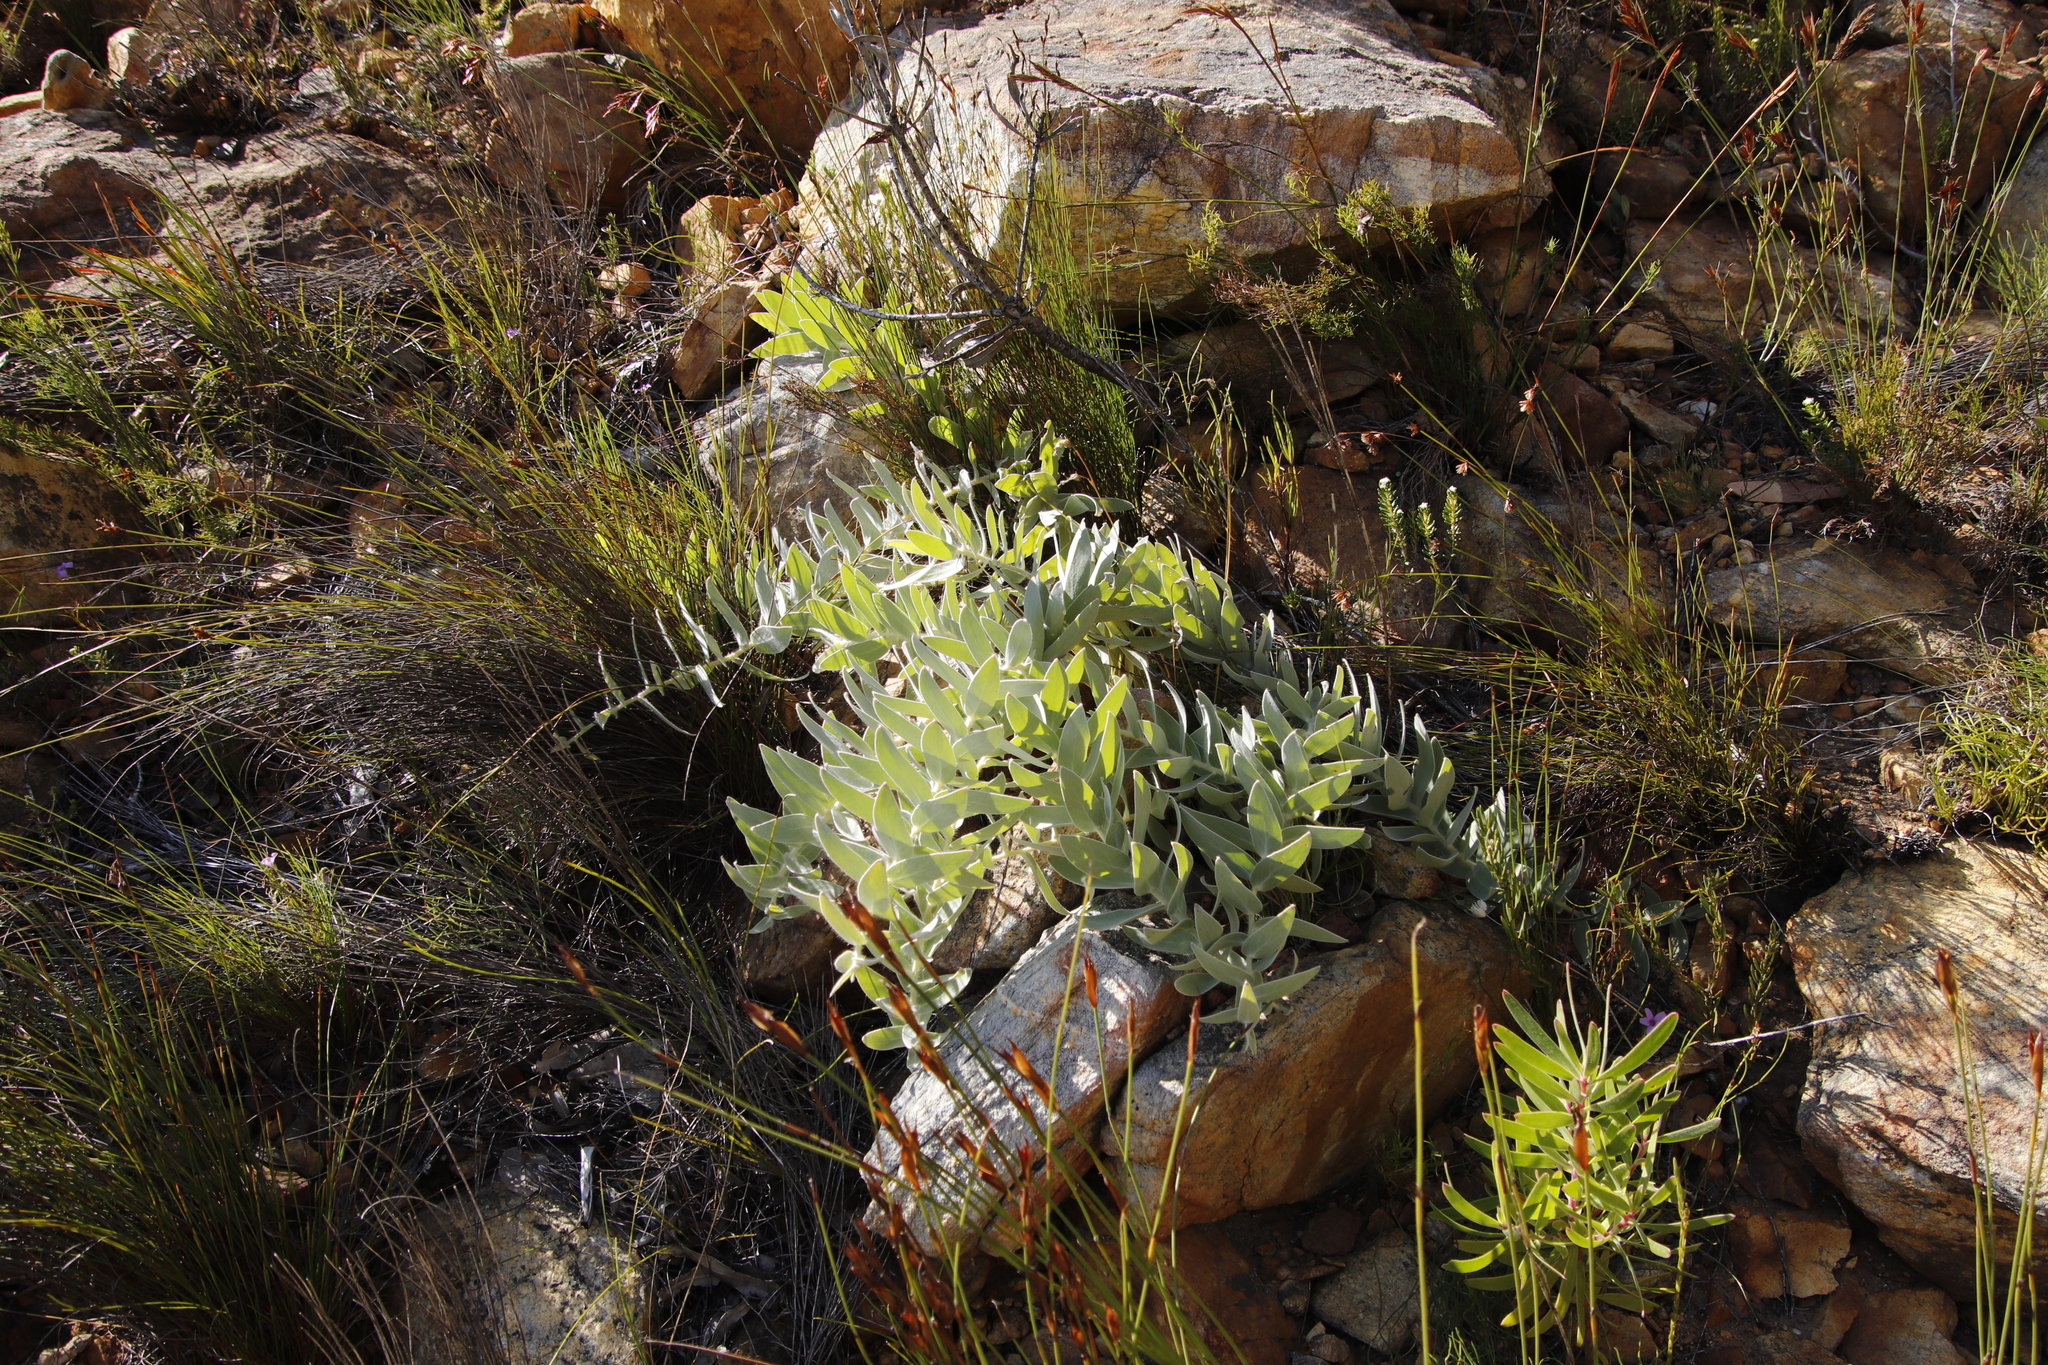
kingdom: Plantae
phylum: Tracheophyta
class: Magnoliopsida
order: Proteales
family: Proteaceae
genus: Leucospermum
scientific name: Leucospermum cordatum
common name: Heart-leaf pincushion
